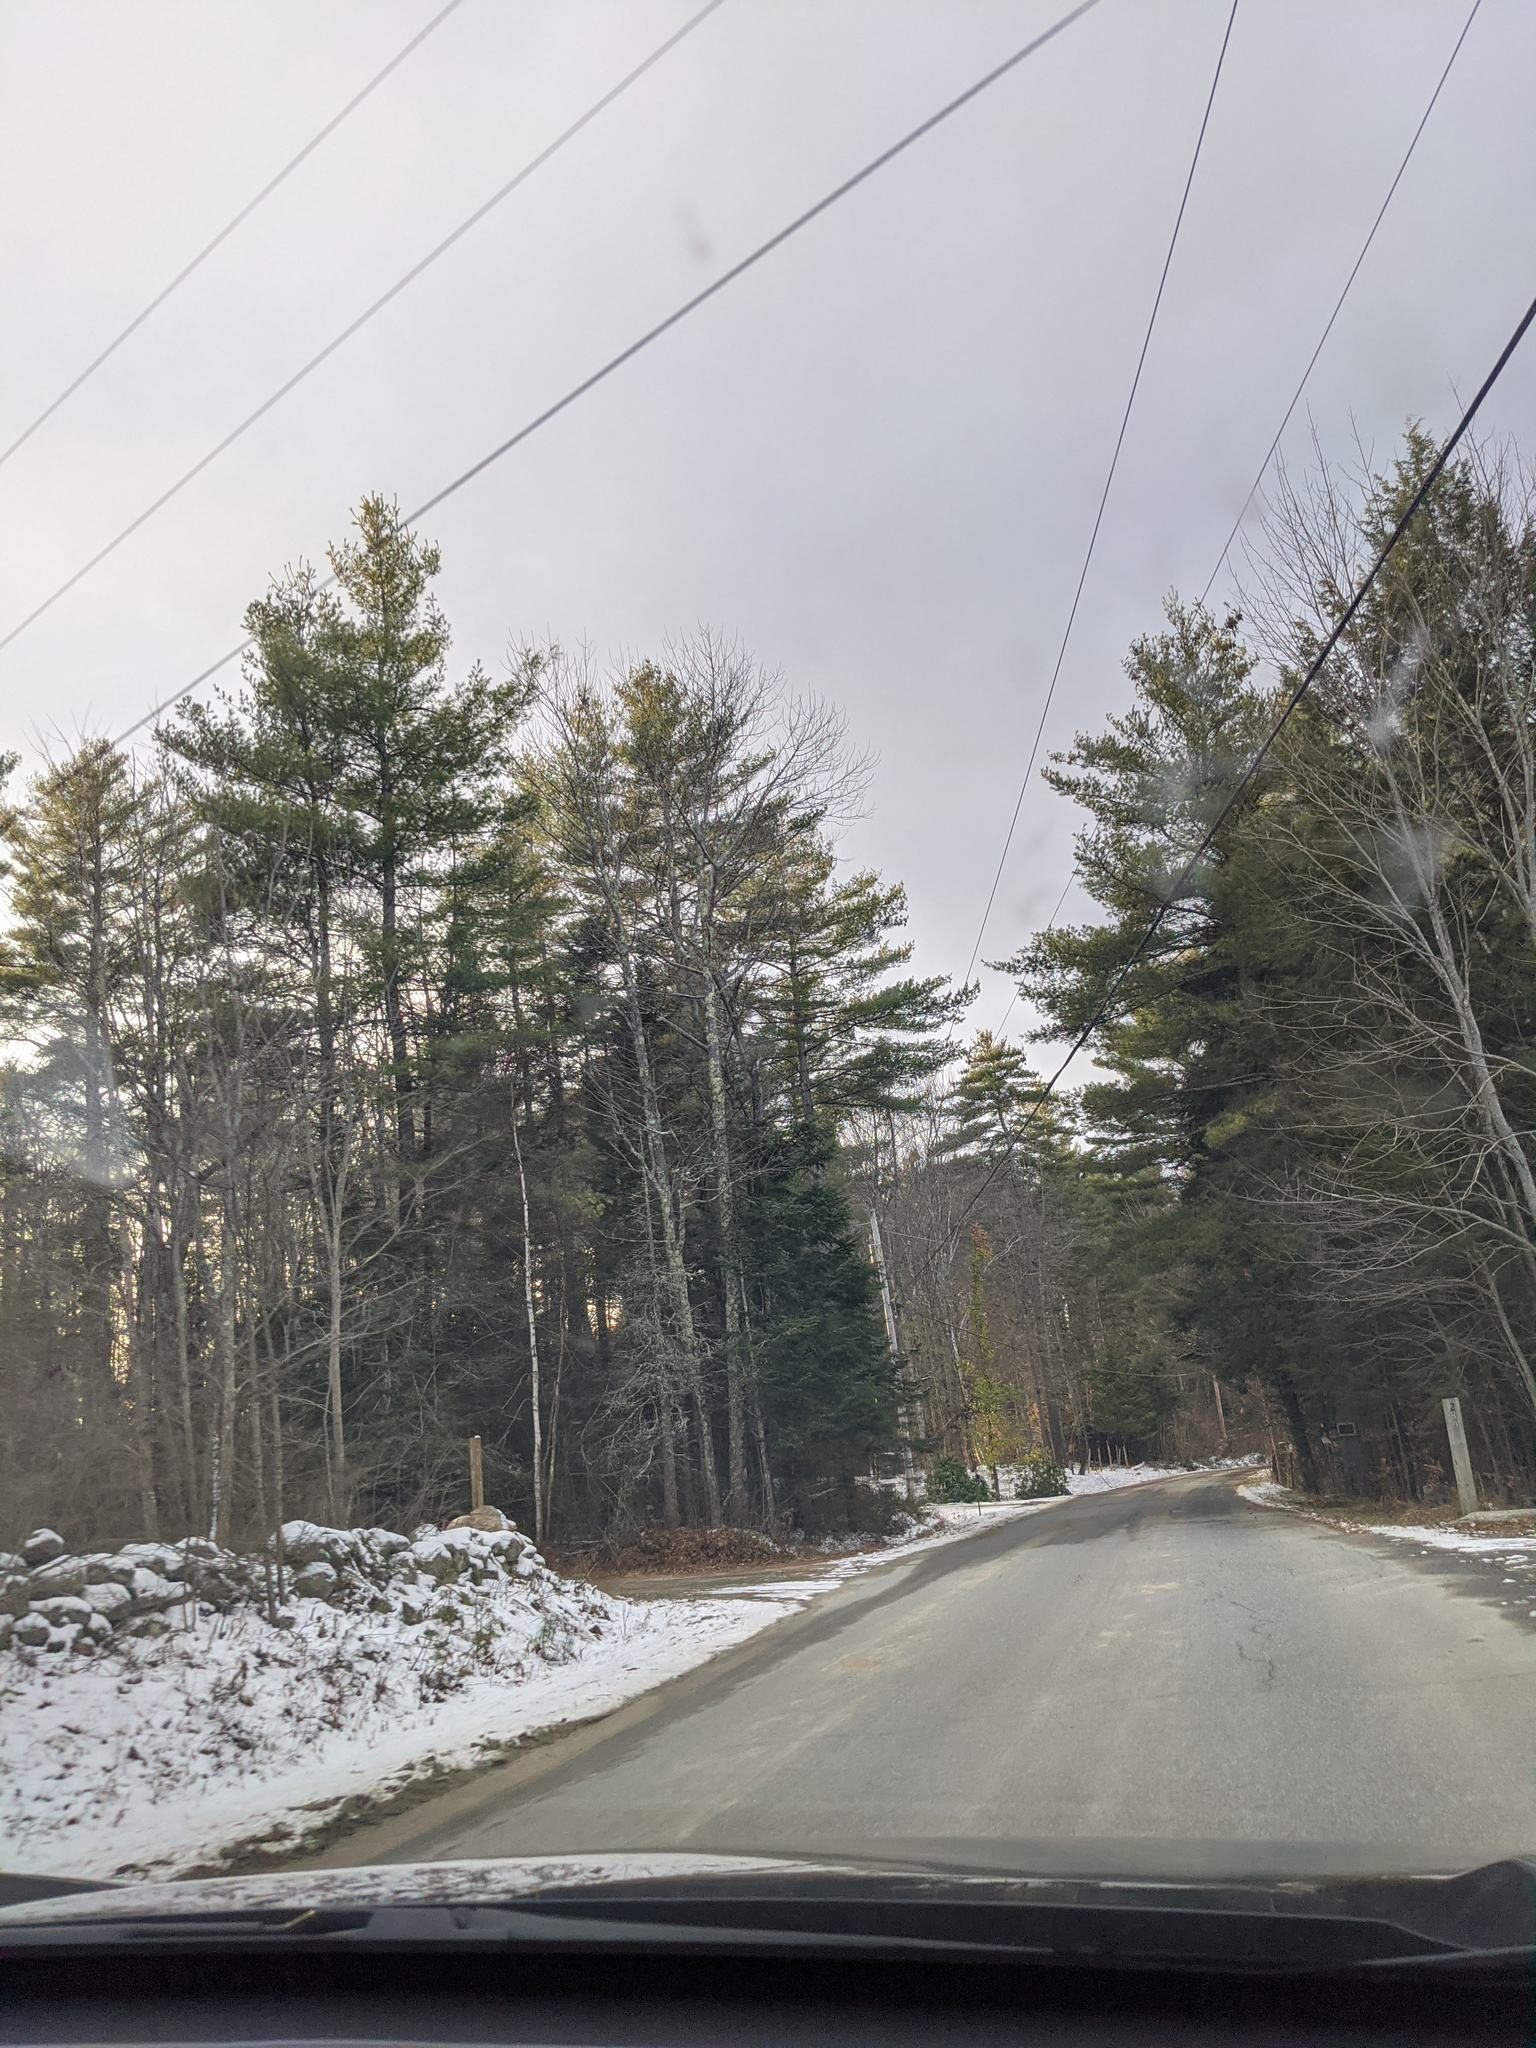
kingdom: Plantae
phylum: Tracheophyta
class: Pinopsida
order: Pinales
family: Pinaceae
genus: Pinus
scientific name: Pinus strobus
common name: Weymouth pine
